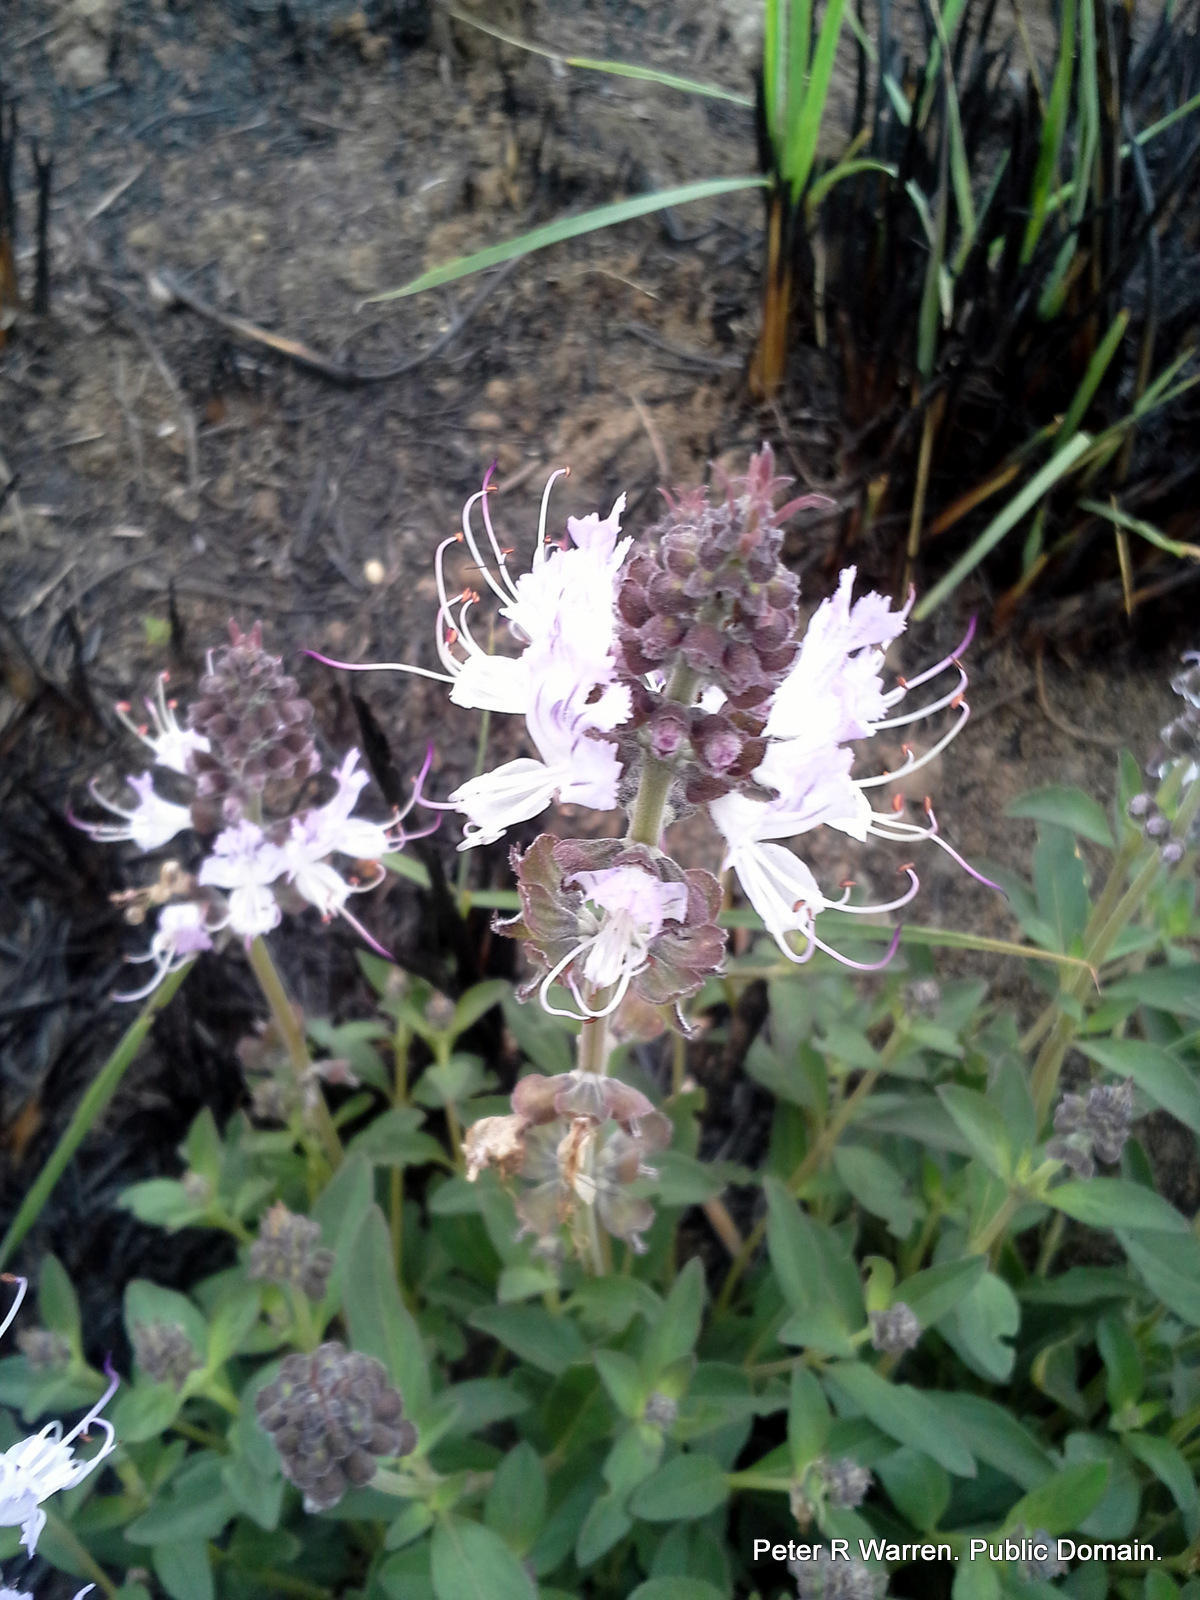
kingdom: Plantae
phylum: Tracheophyta
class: Magnoliopsida
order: Lamiales
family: Lamiaceae
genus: Ocimum
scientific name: Ocimum obovatum
